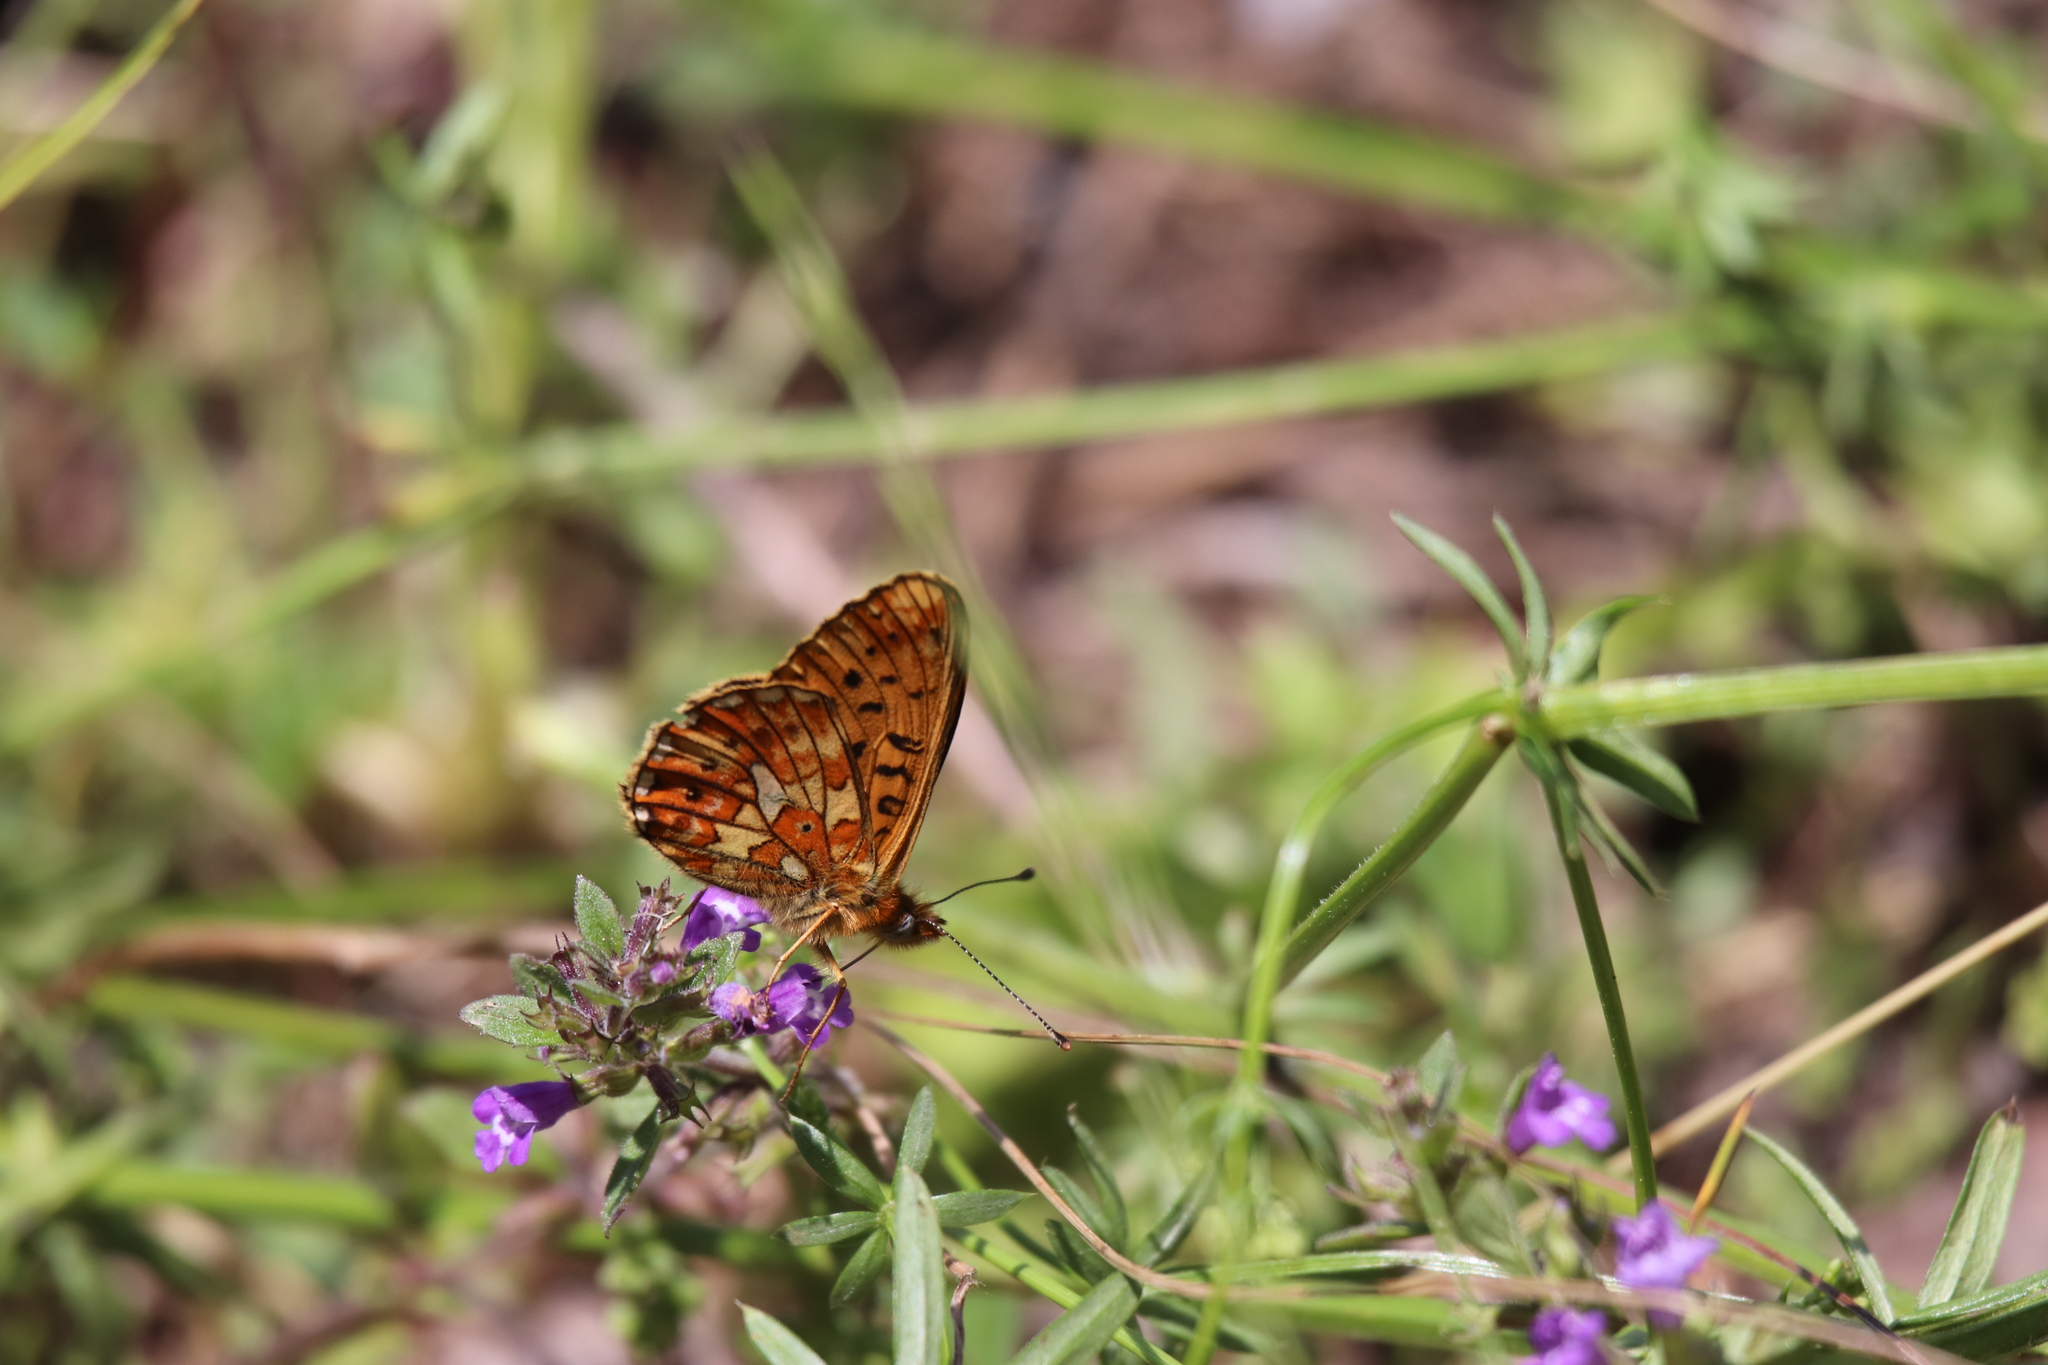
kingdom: Animalia
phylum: Arthropoda
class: Insecta
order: Lepidoptera
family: Nymphalidae
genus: Clossiana
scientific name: Clossiana euphrosyne
